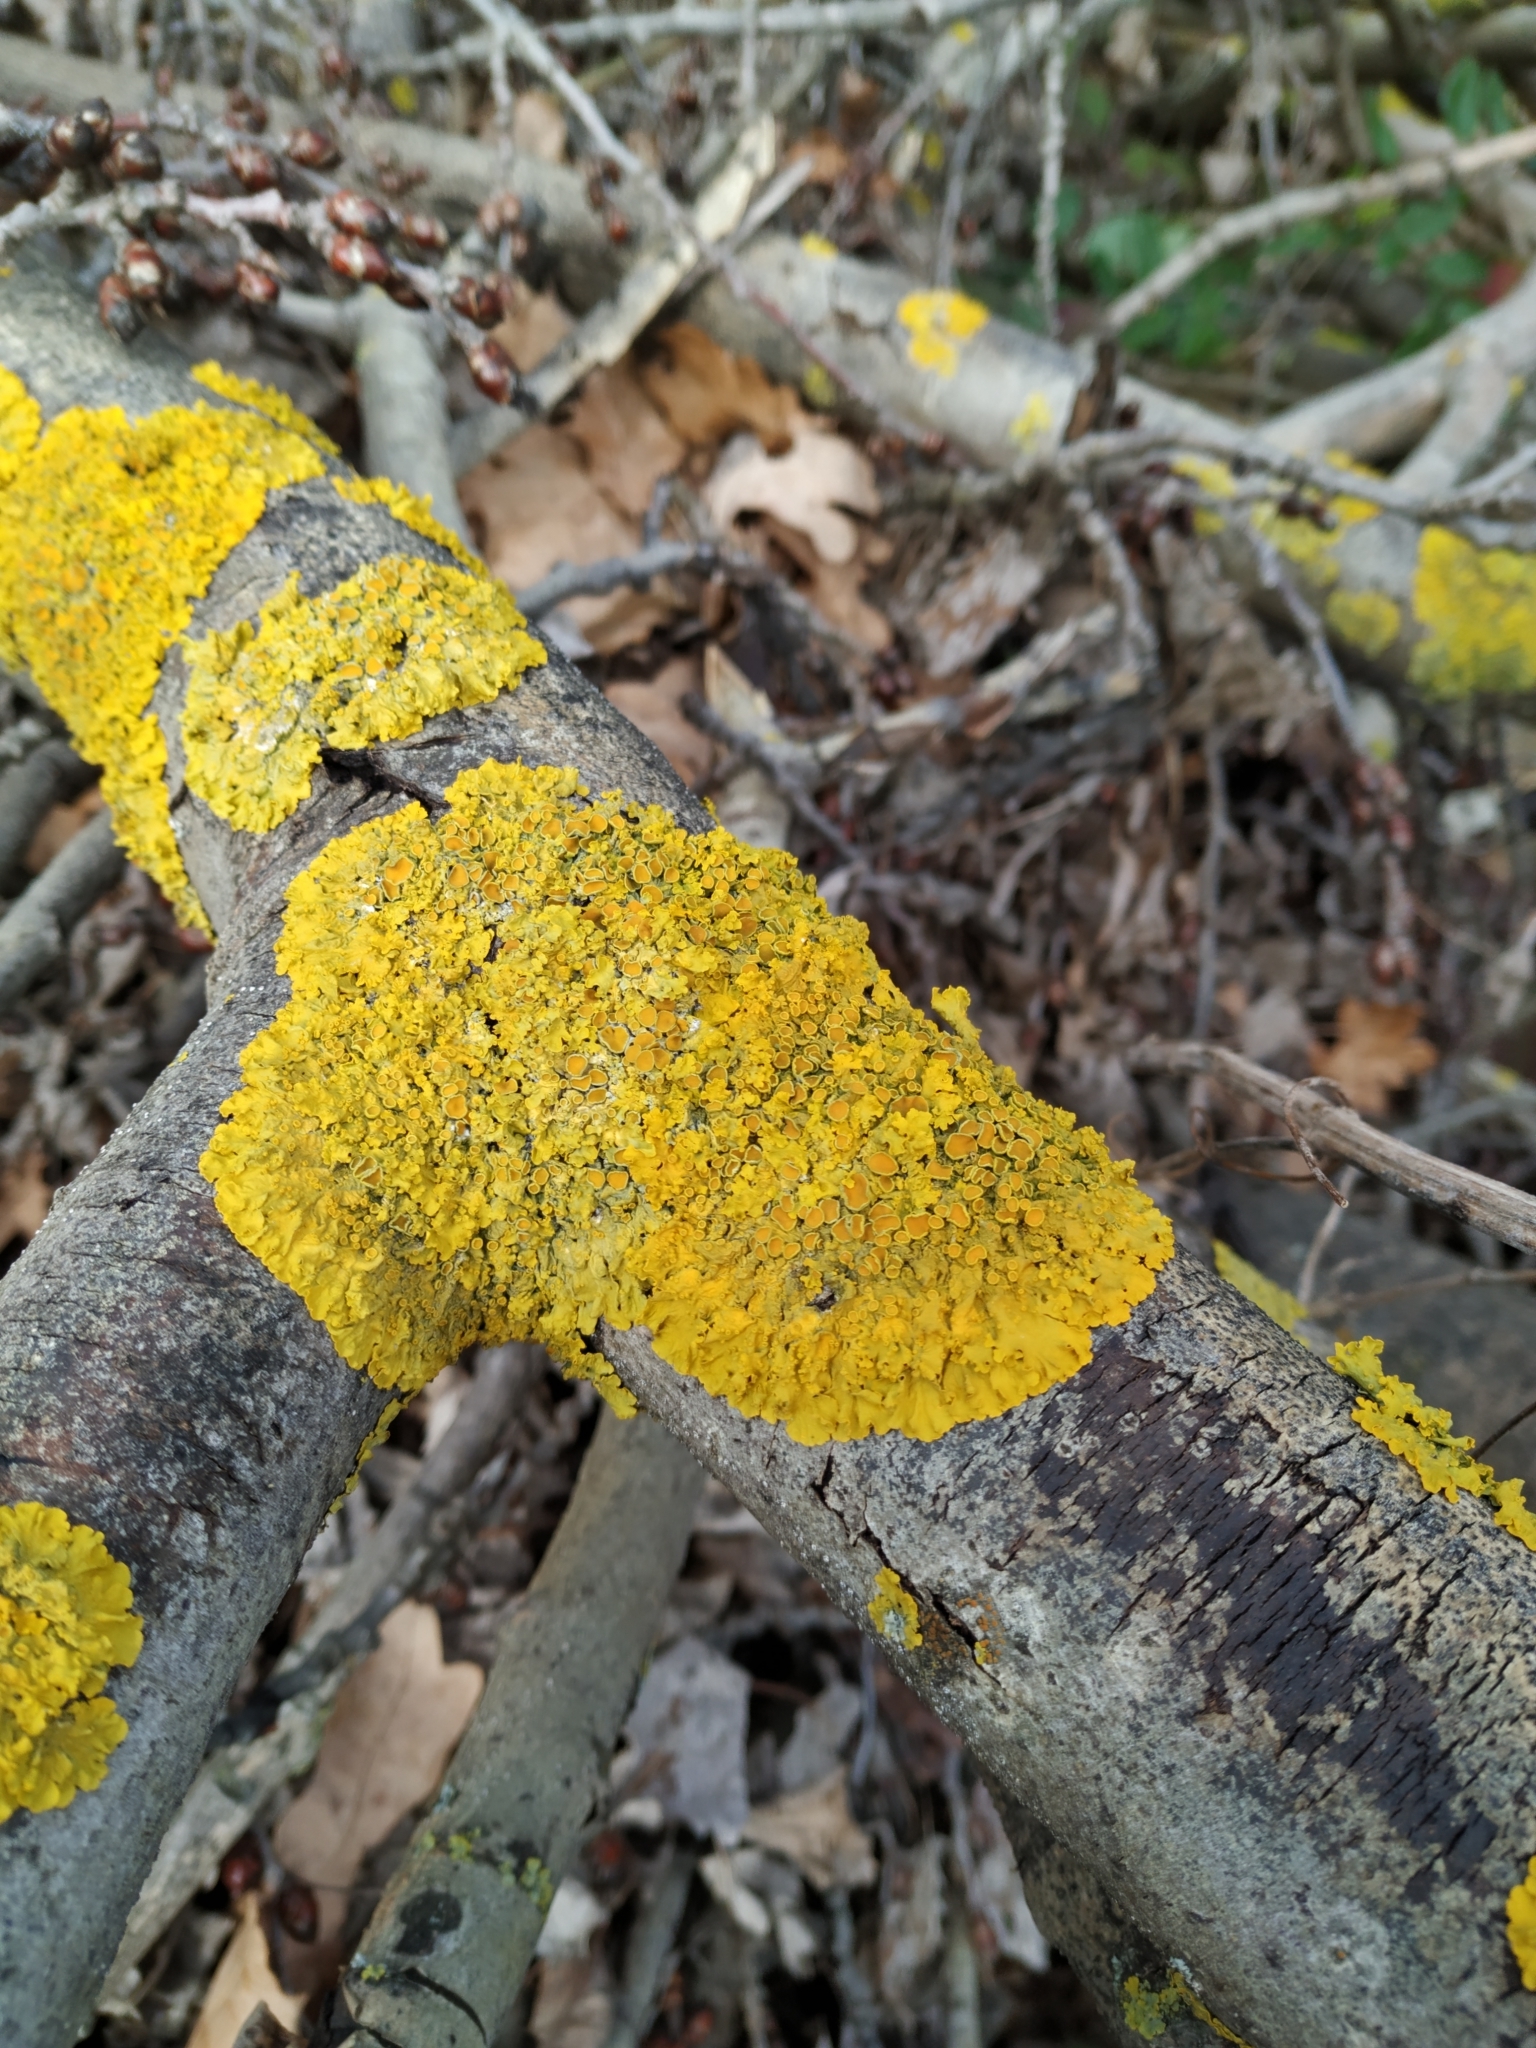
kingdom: Fungi
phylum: Ascomycota
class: Lecanoromycetes
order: Teloschistales
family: Teloschistaceae
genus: Xanthoria
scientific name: Xanthoria parietina
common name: Common orange lichen
